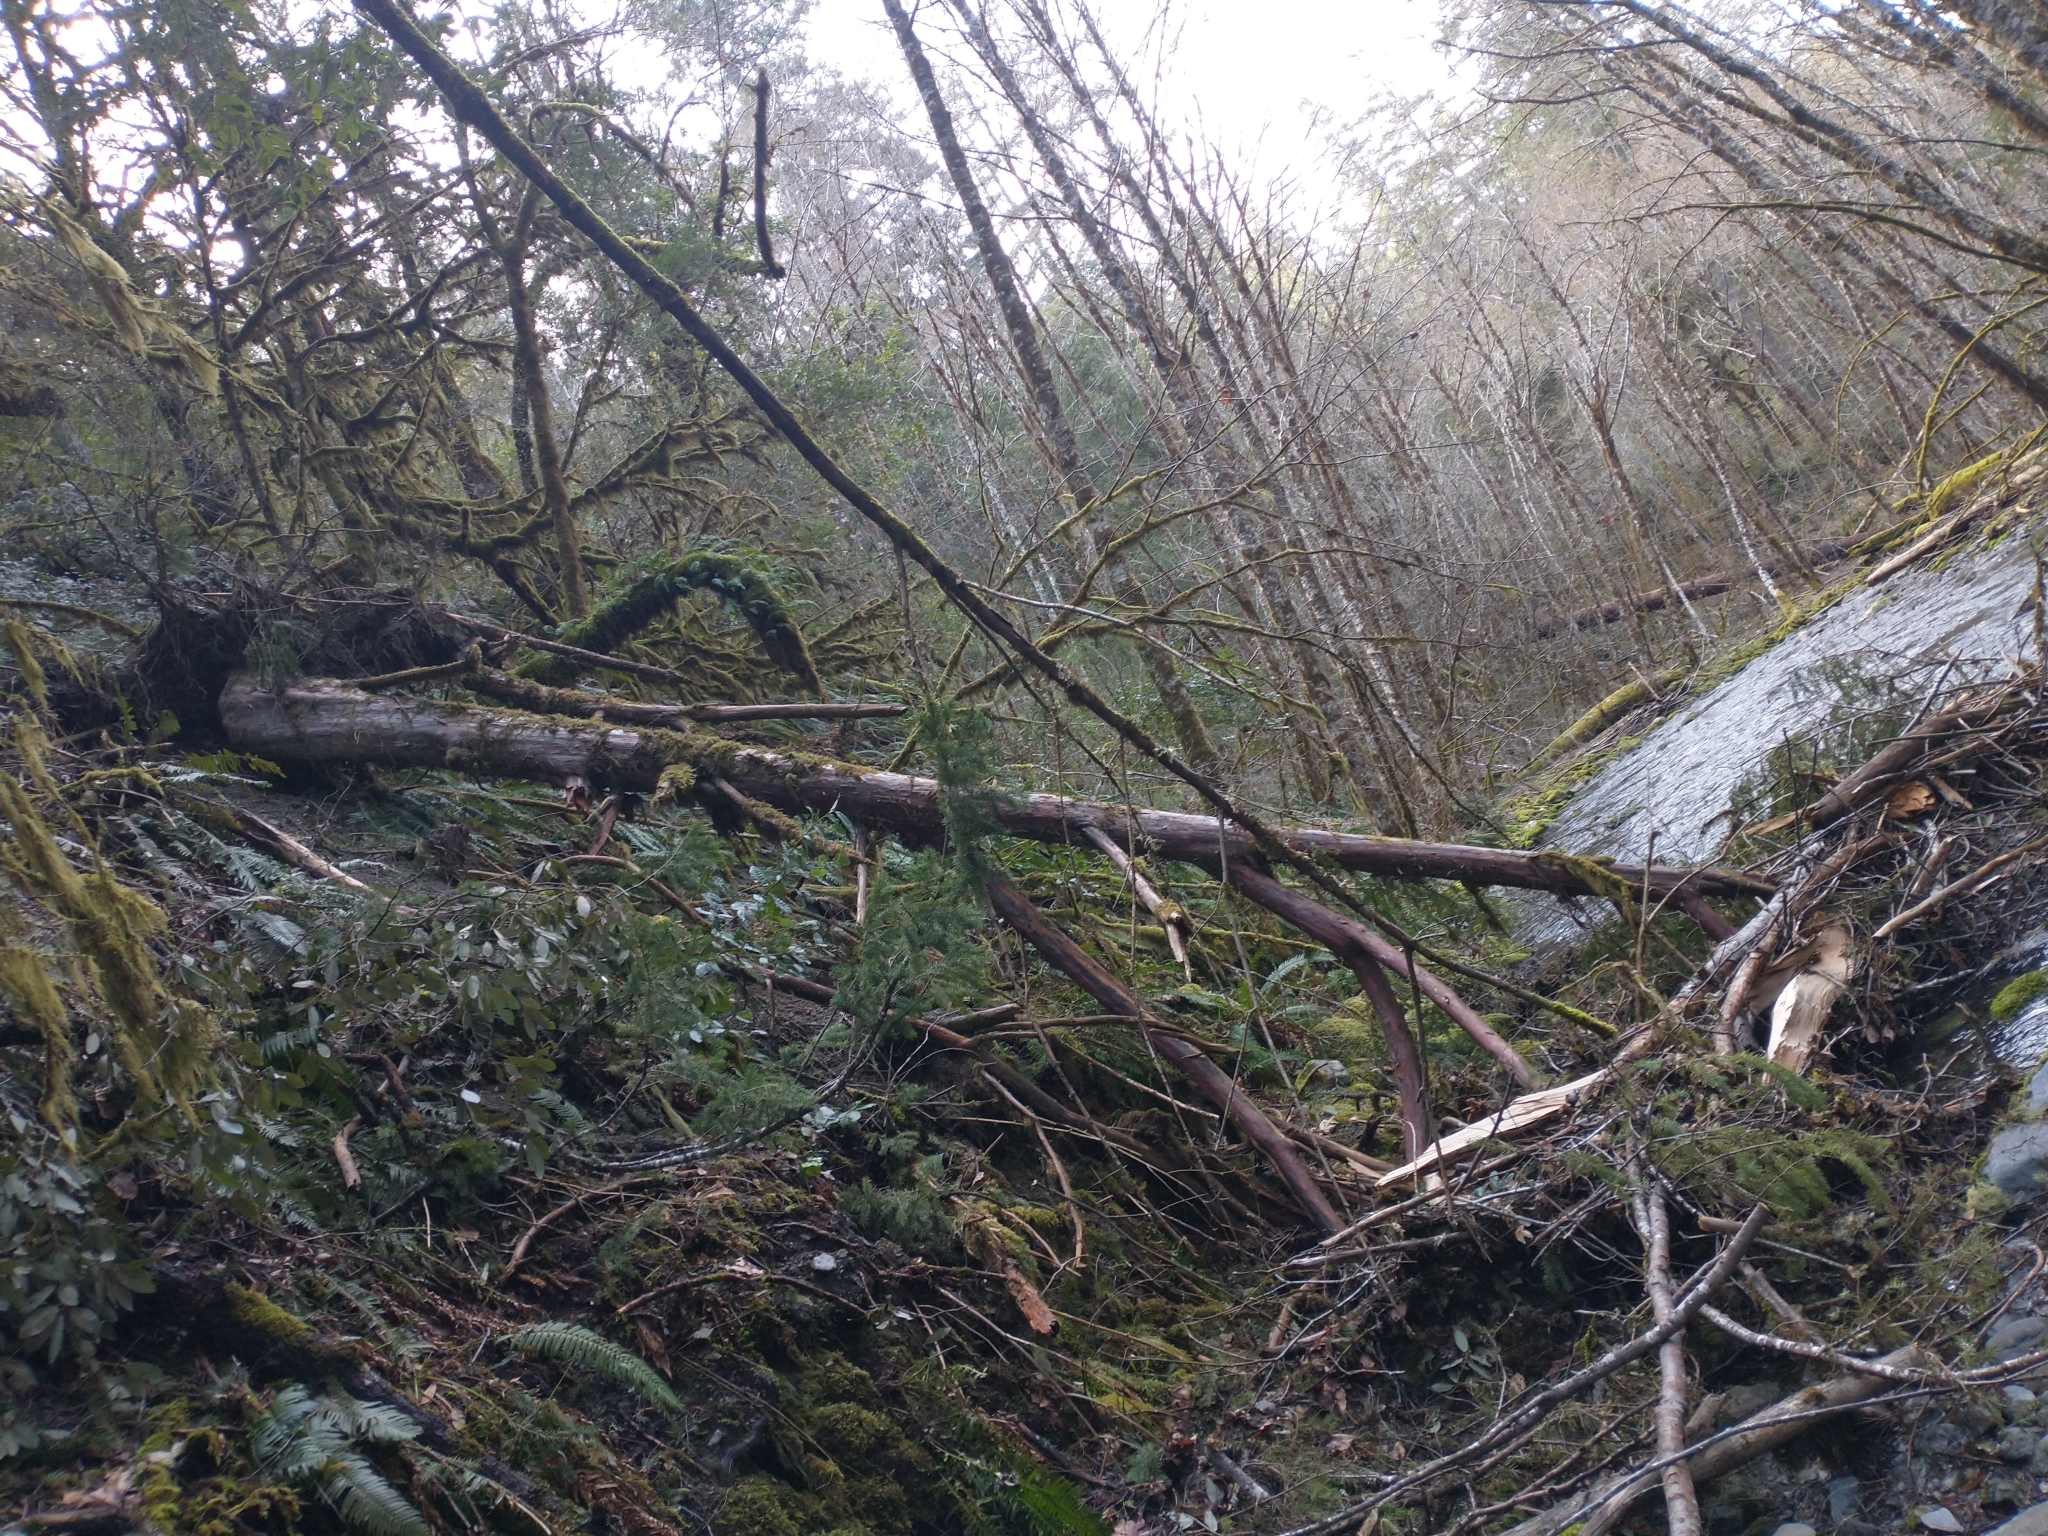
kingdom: Plantae
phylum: Tracheophyta
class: Pinopsida
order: Pinales
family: Taxaceae
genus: Taxus
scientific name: Taxus brevifolia
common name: Pacific yew
